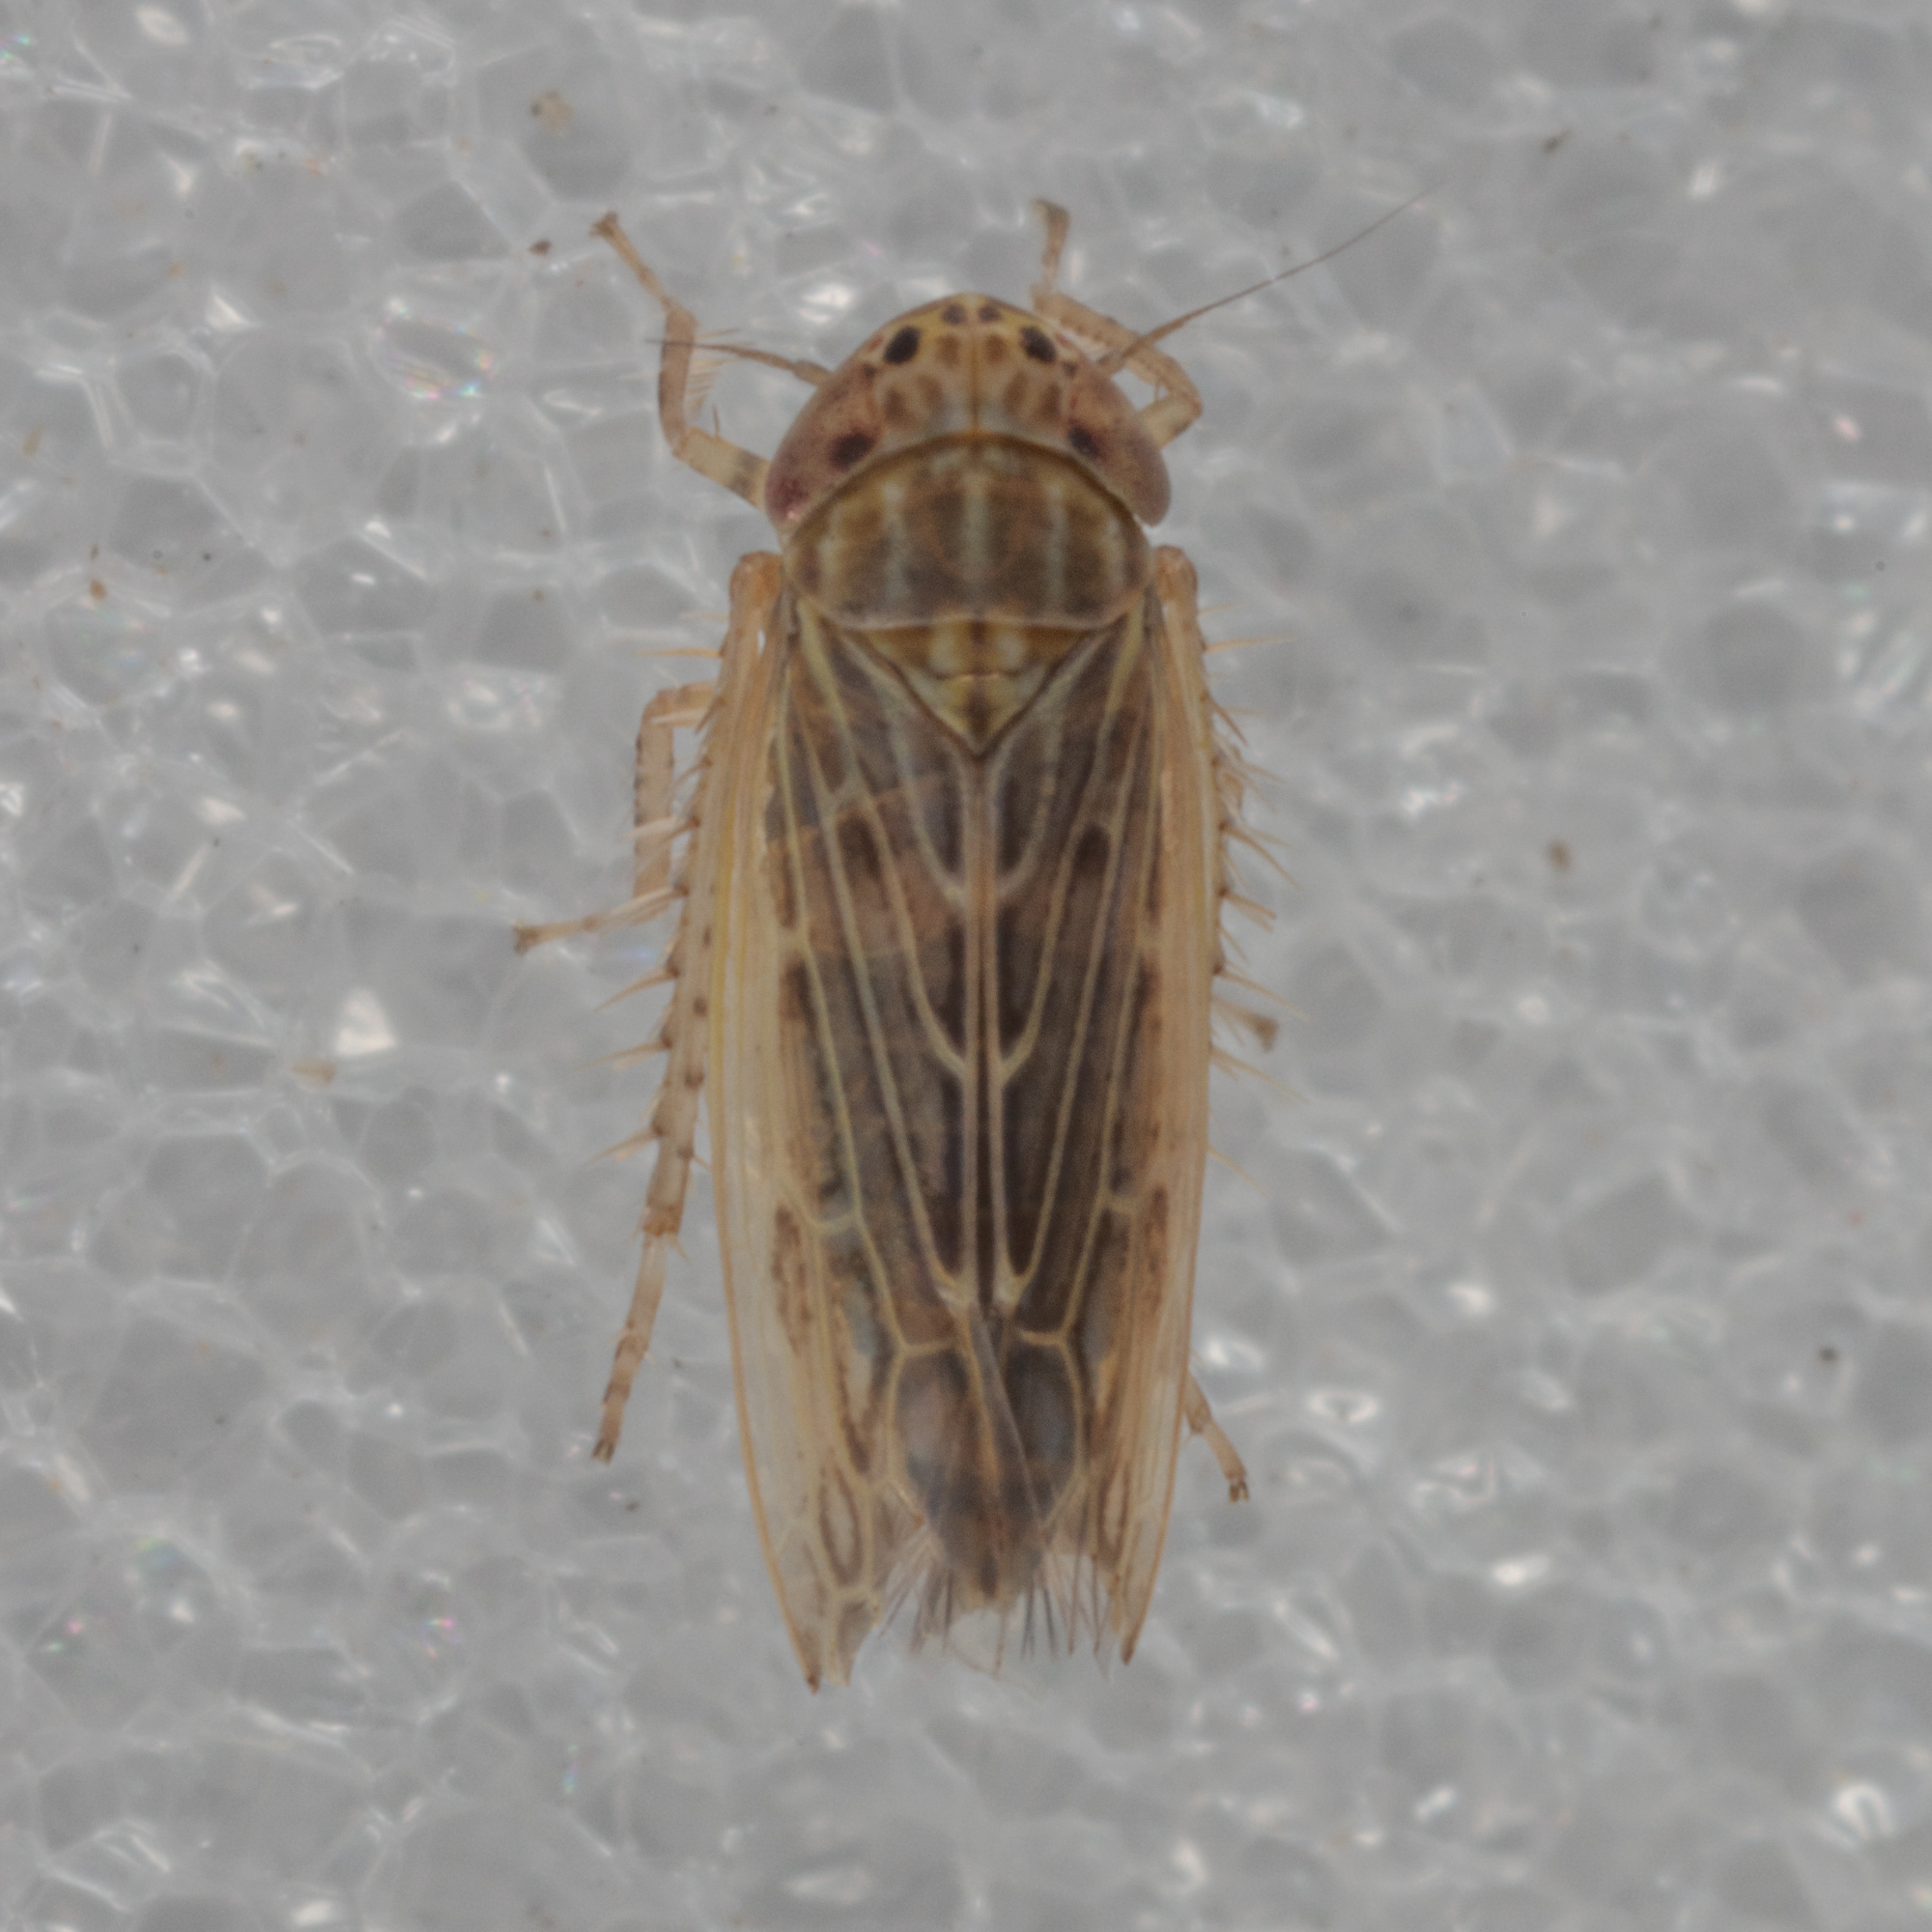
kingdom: Animalia
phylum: Arthropoda
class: Insecta
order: Hemiptera
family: Cicadellidae
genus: Graminella
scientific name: Graminella sonora
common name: Lesser lawn leafhopper
